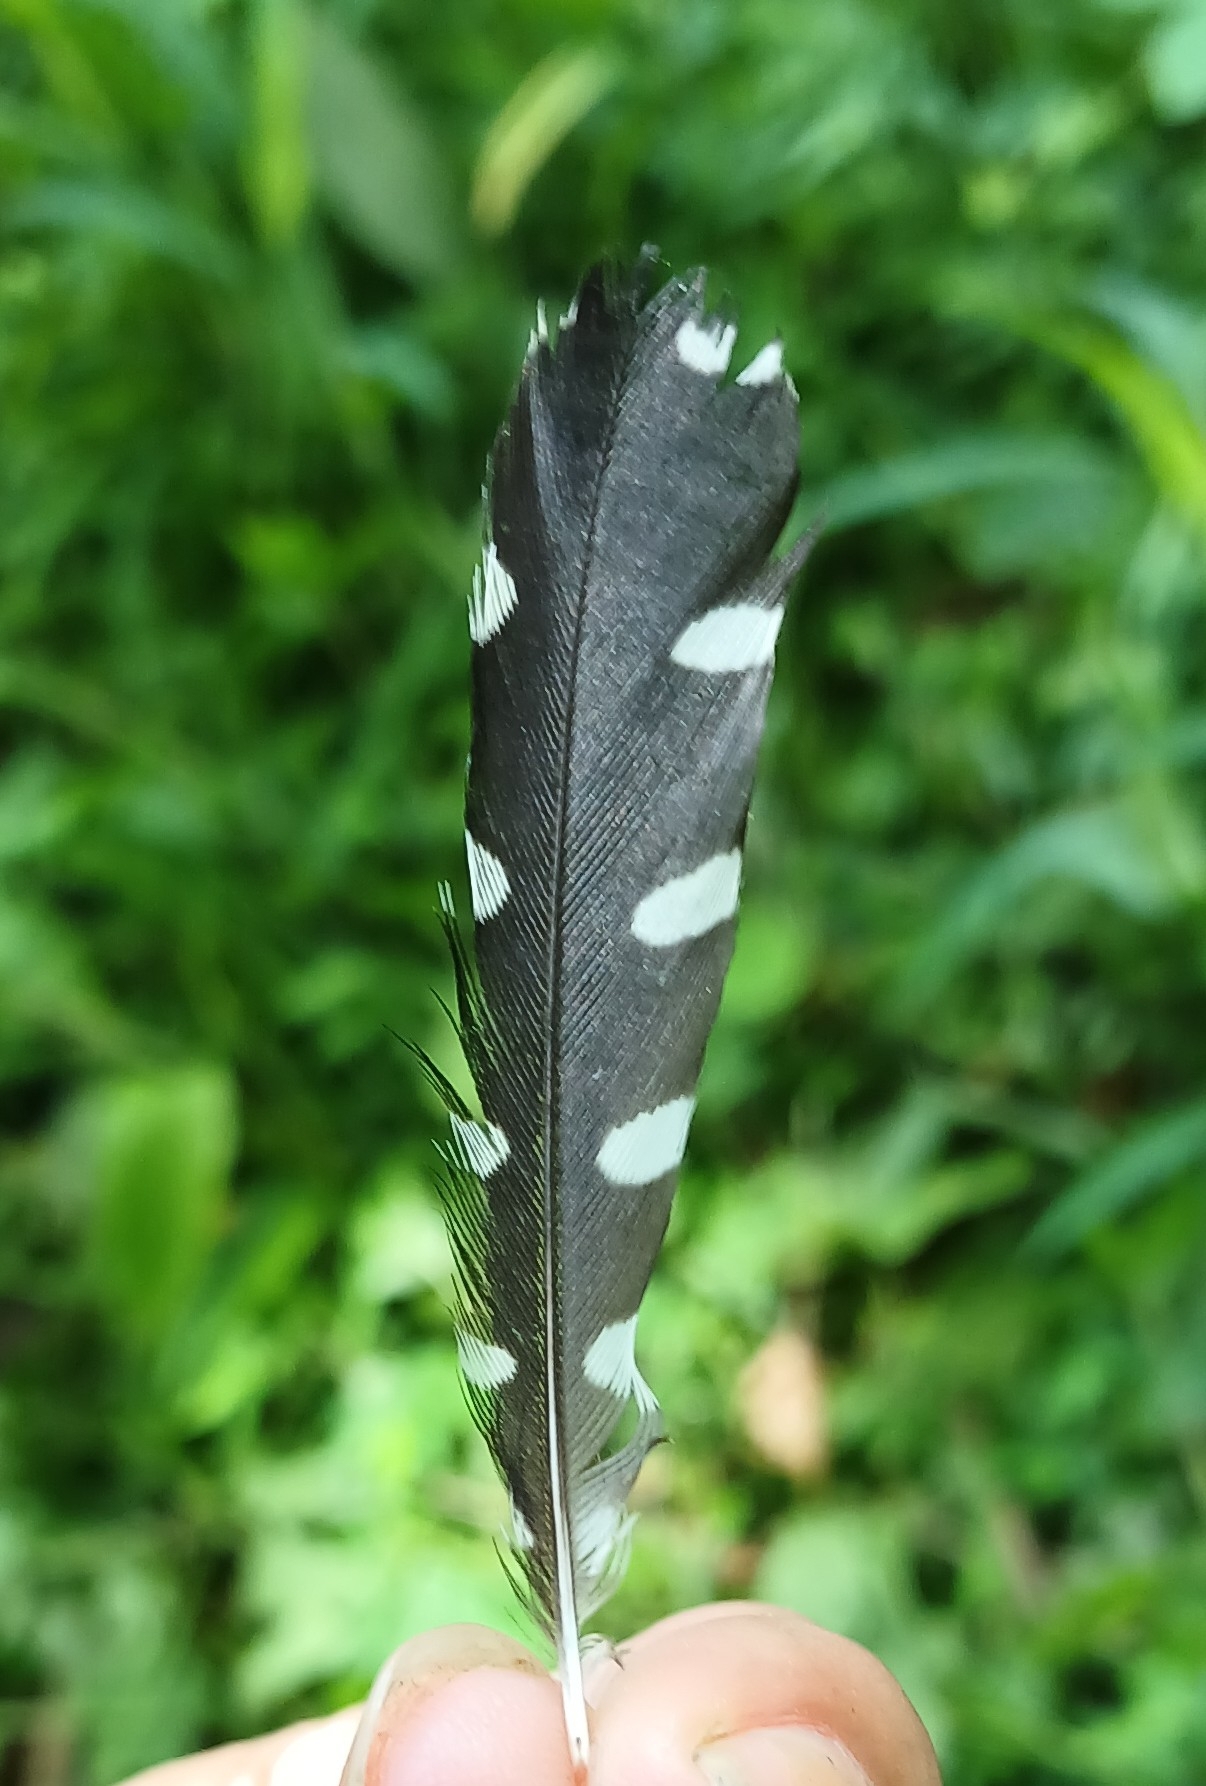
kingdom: Animalia
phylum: Chordata
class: Aves
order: Piciformes
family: Picidae
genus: Melanerpes
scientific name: Melanerpes rubricapillus
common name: Red-crowned woodpecker
